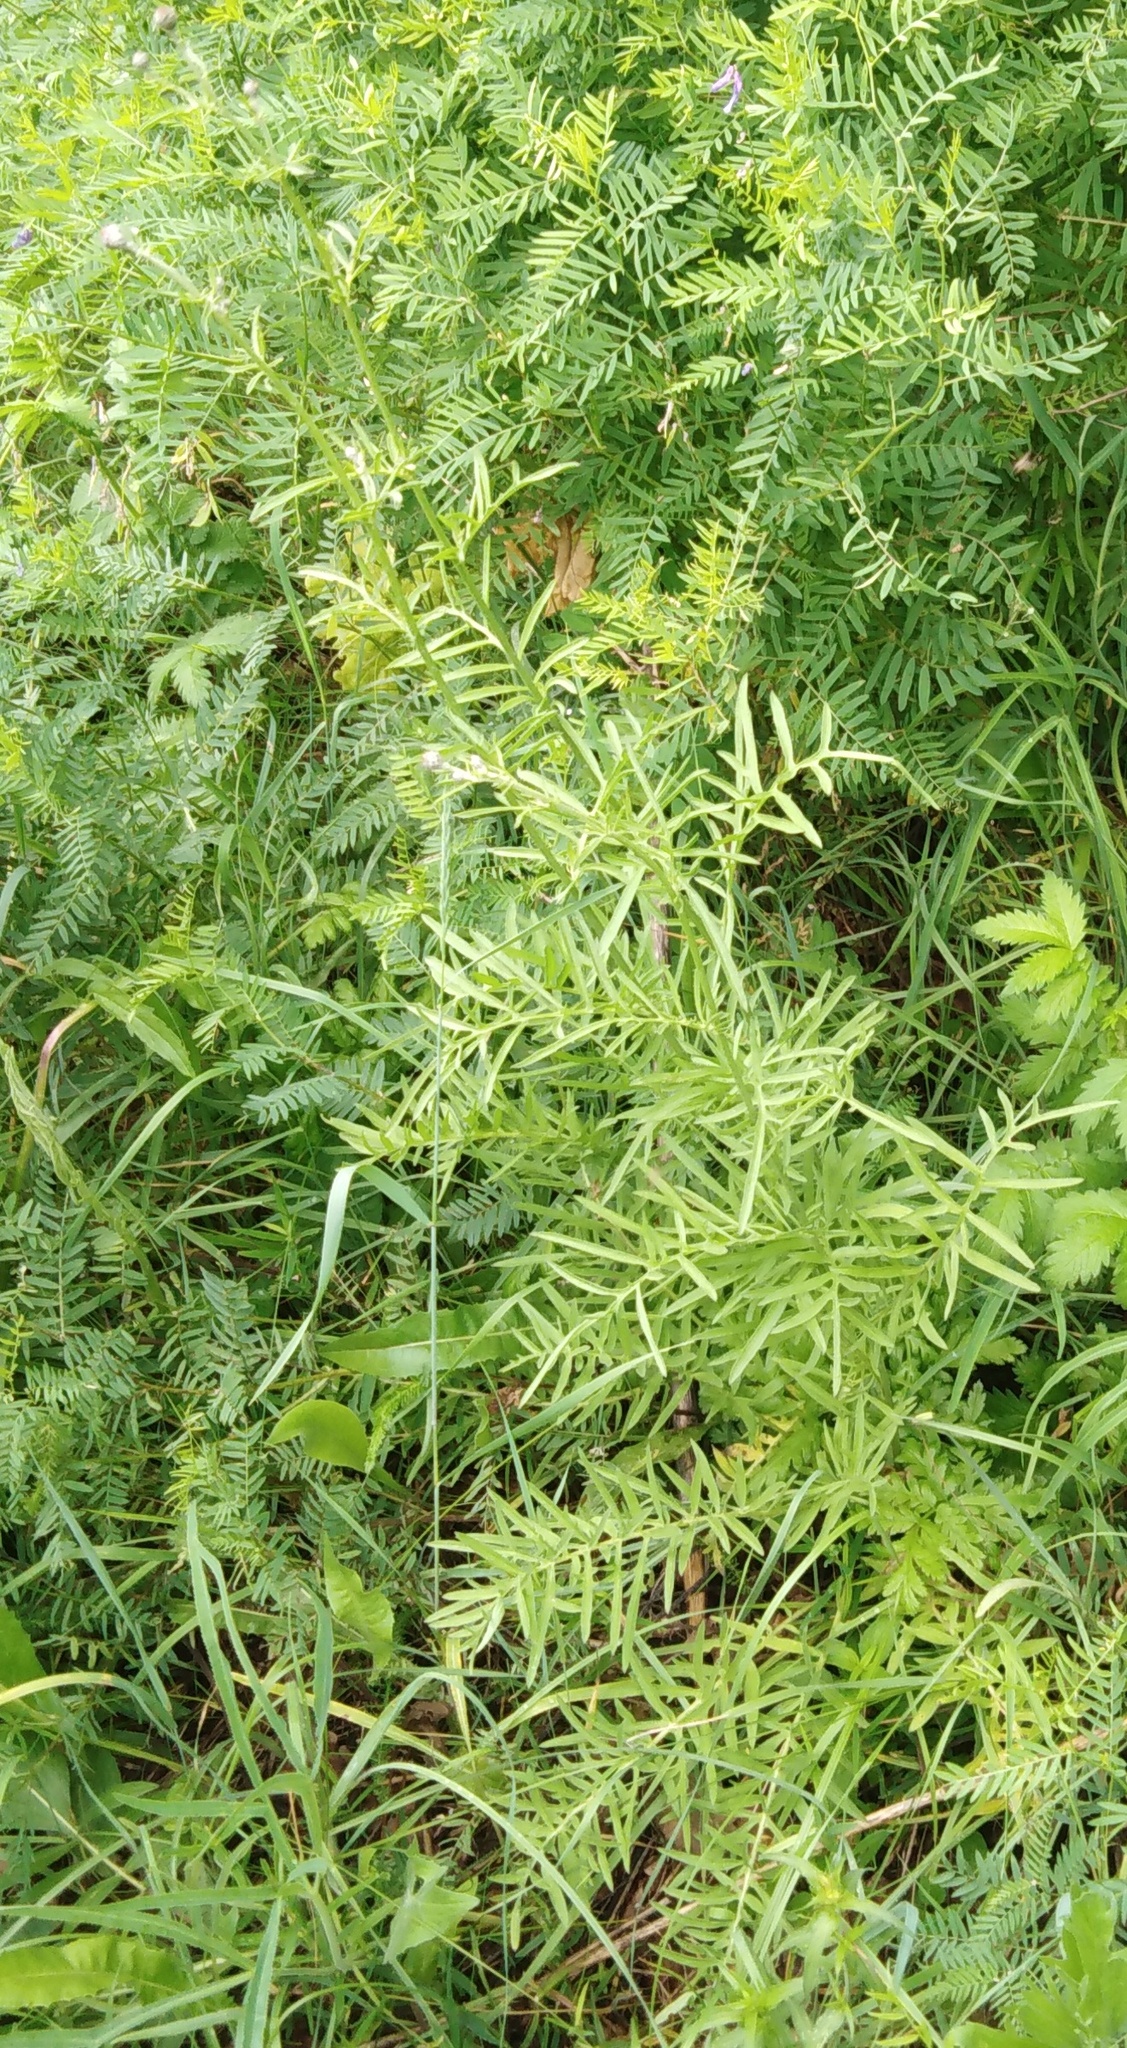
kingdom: Plantae
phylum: Tracheophyta
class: Magnoliopsida
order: Asterales
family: Asteraceae
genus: Centaurea
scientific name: Centaurea scabiosa
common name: Greater knapweed
